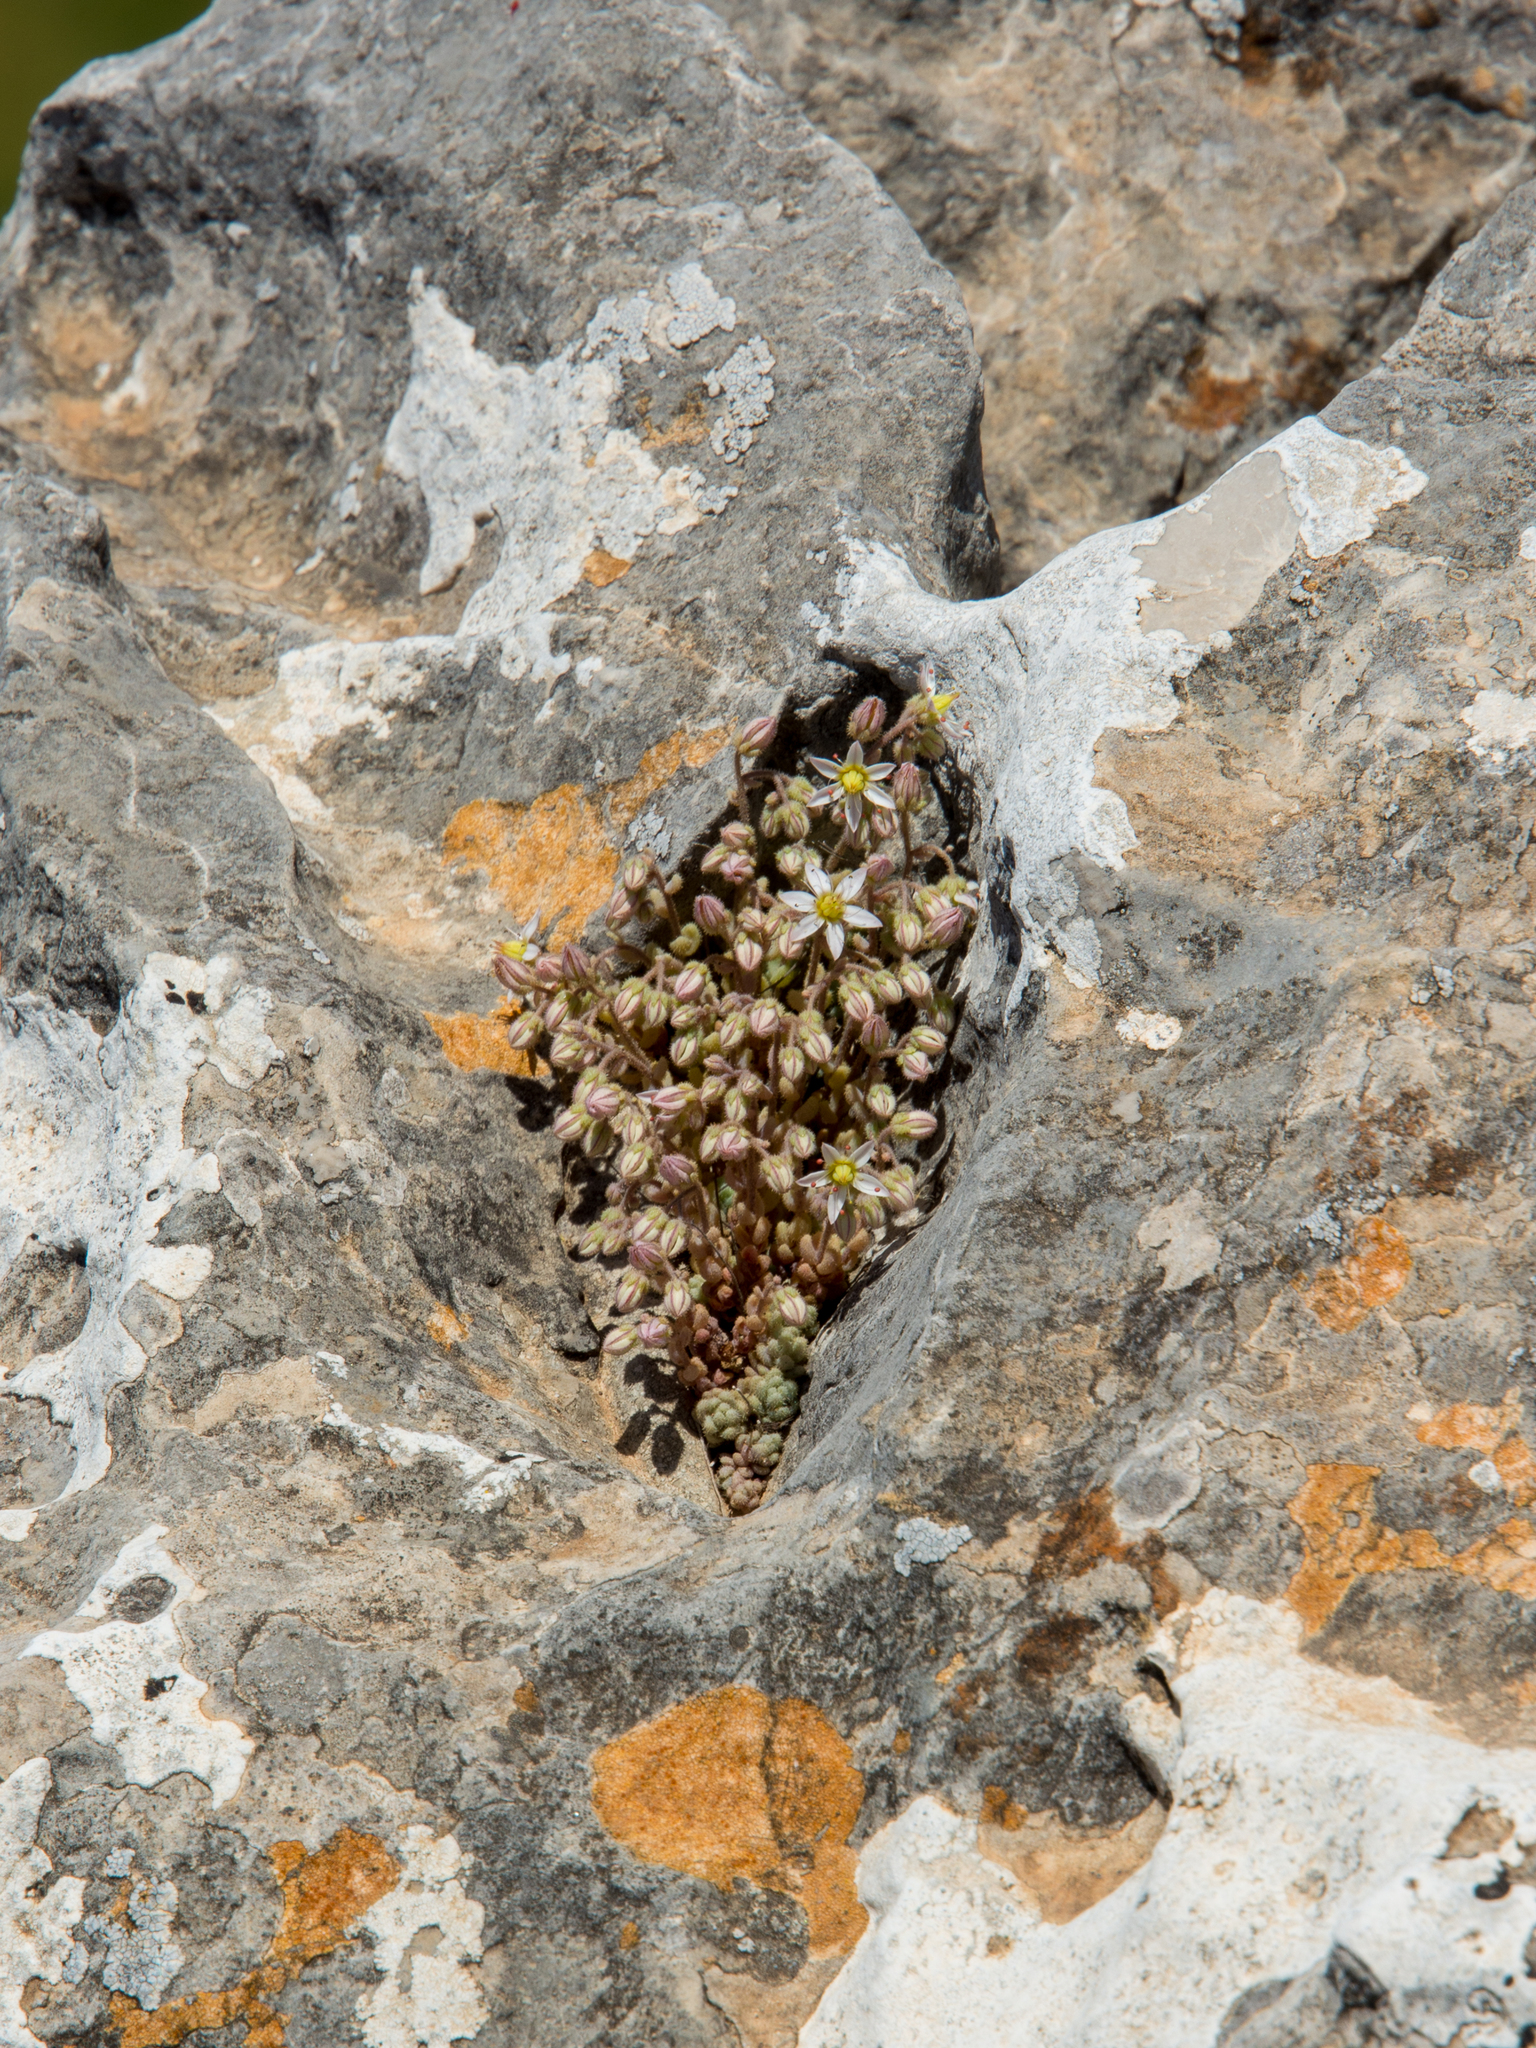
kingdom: Plantae
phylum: Tracheophyta
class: Magnoliopsida
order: Saxifragales
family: Crassulaceae
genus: Sedum
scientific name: Sedum dasyphyllum
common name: Thick-leaf stonecrop
